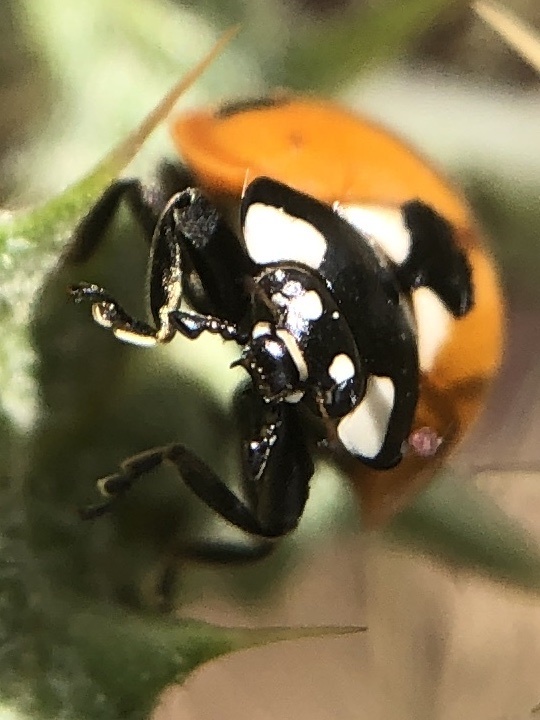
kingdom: Animalia
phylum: Arthropoda
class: Insecta
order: Coleoptera
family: Coccinellidae
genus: Coccinella
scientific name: Coccinella septempunctata
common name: Sevenspotted lady beetle
